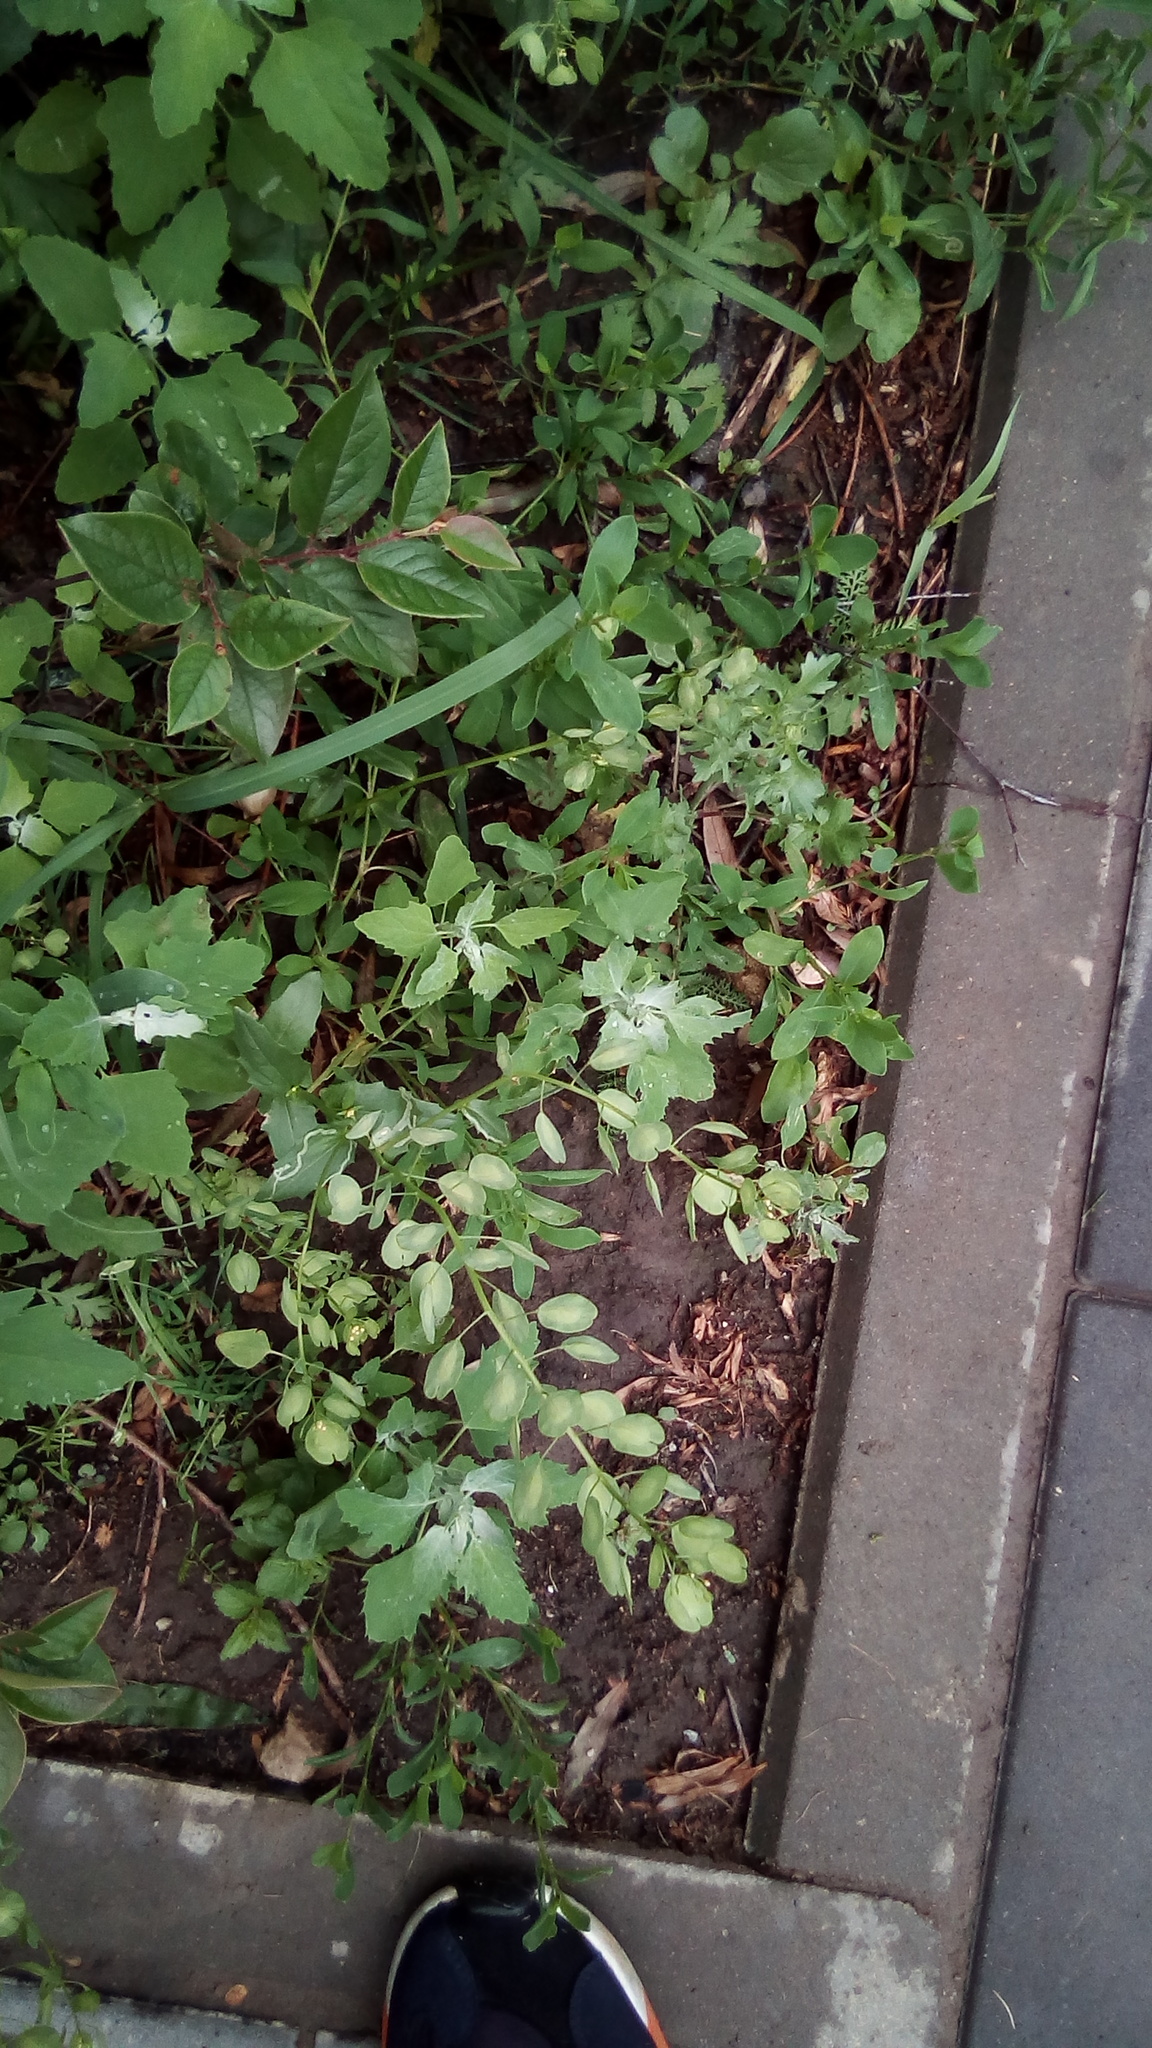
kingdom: Plantae
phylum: Tracheophyta
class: Magnoliopsida
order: Brassicales
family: Brassicaceae
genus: Thlaspi
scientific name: Thlaspi arvense
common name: Field pennycress
